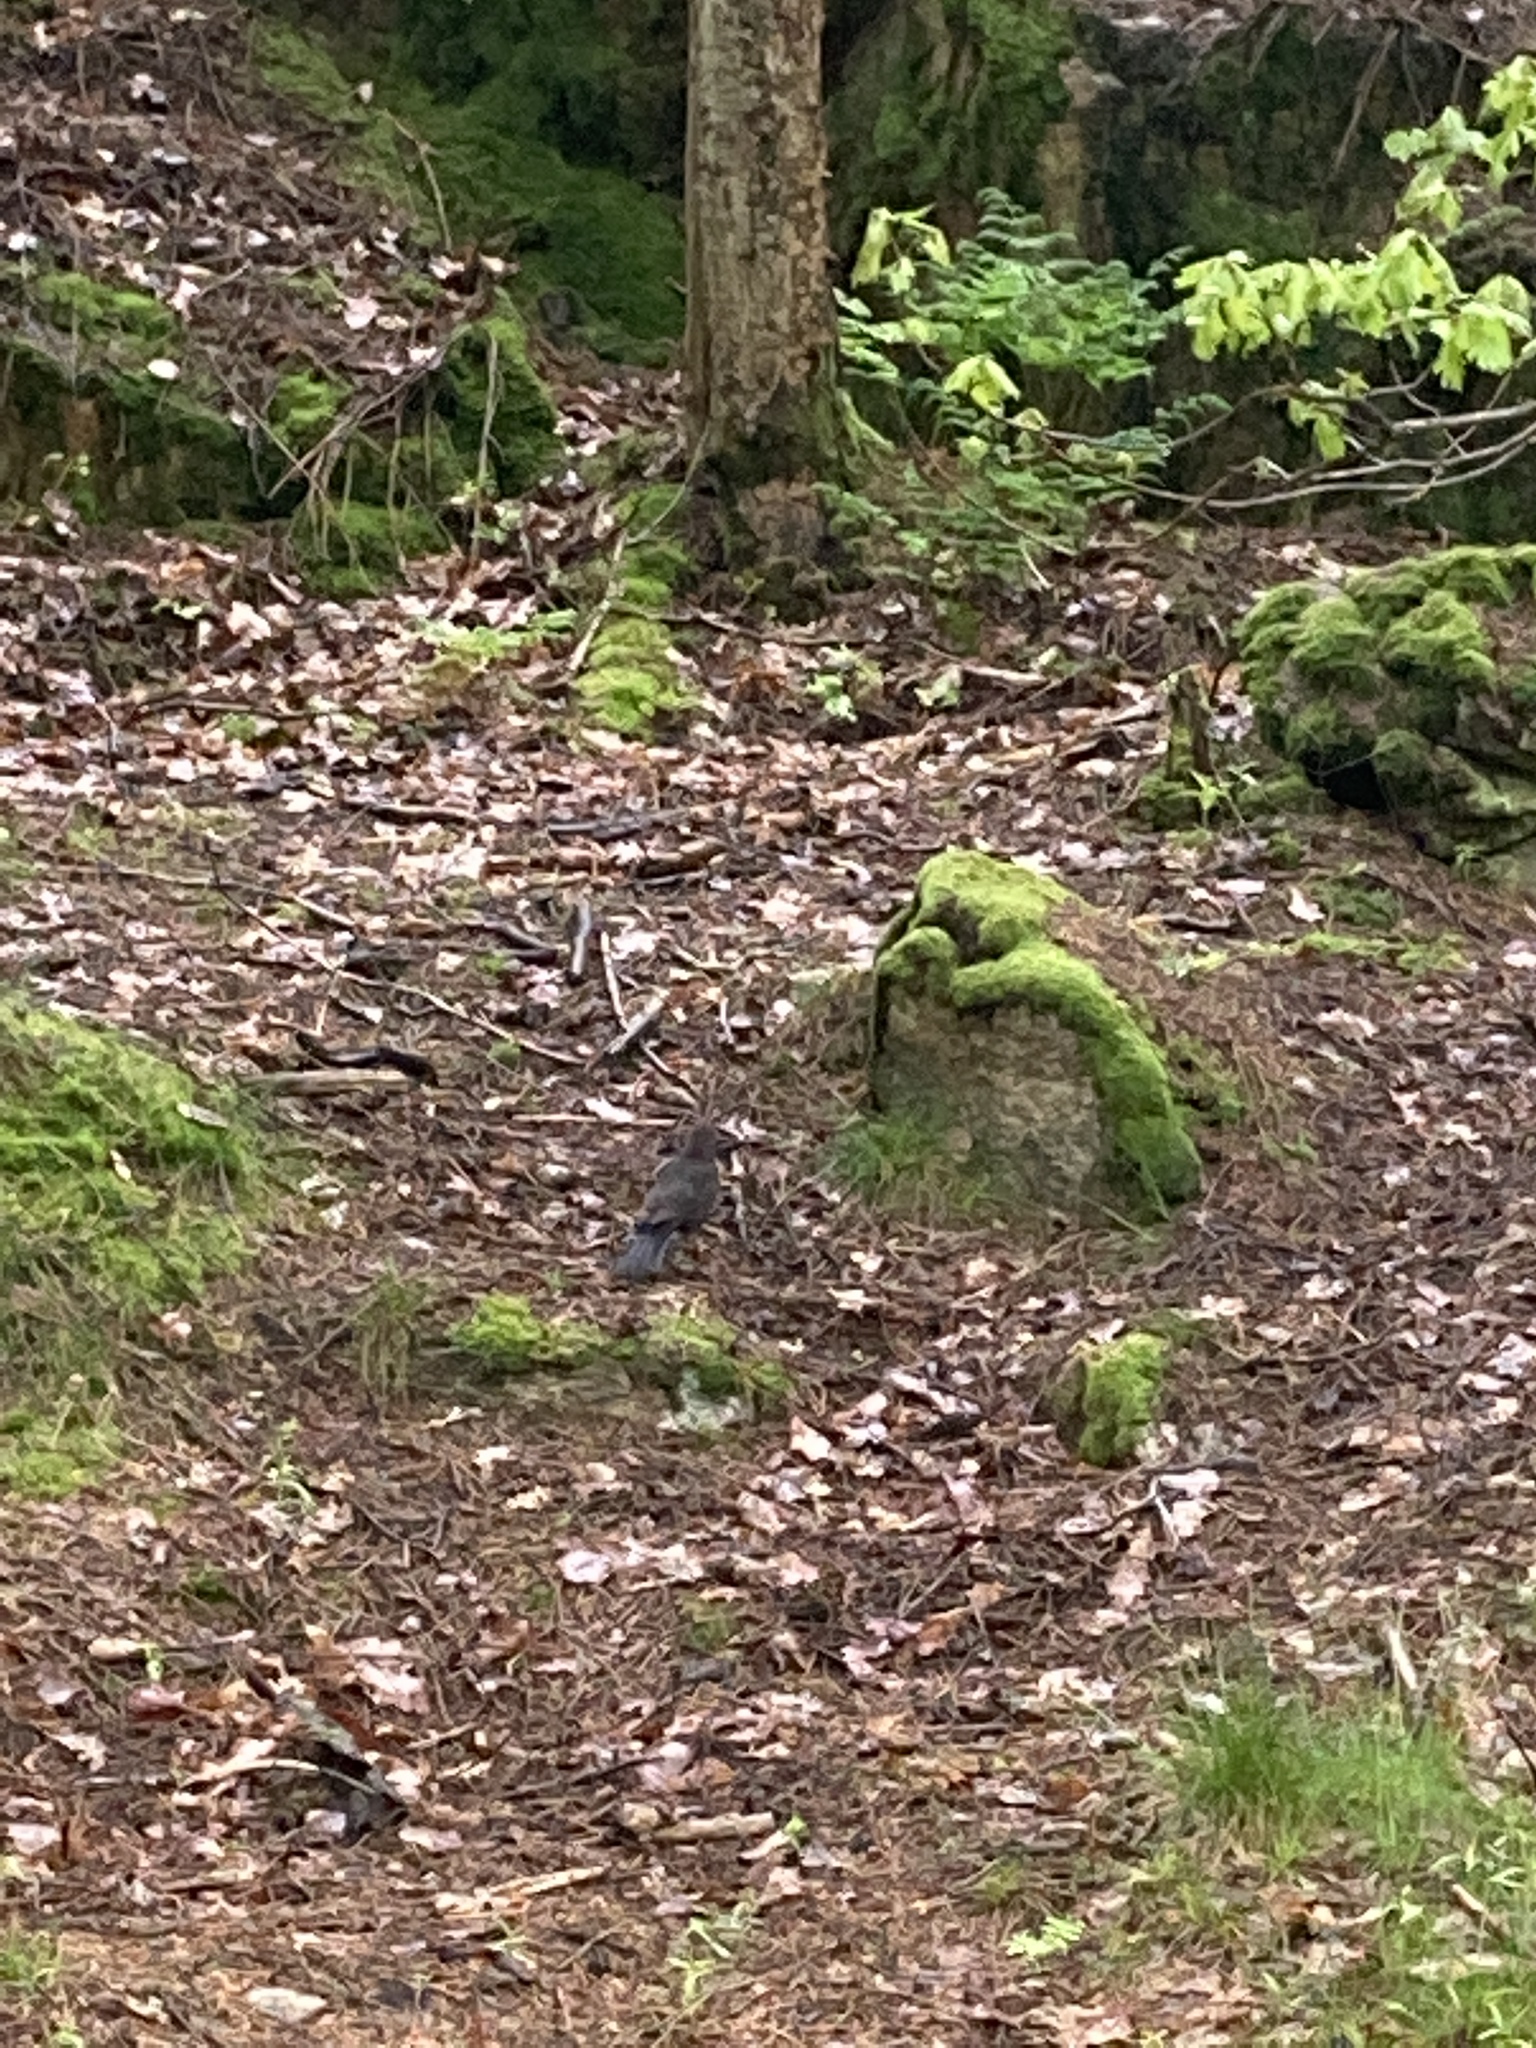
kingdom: Animalia
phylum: Chordata
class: Aves
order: Passeriformes
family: Turdidae
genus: Turdus
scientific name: Turdus merula
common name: Common blackbird
